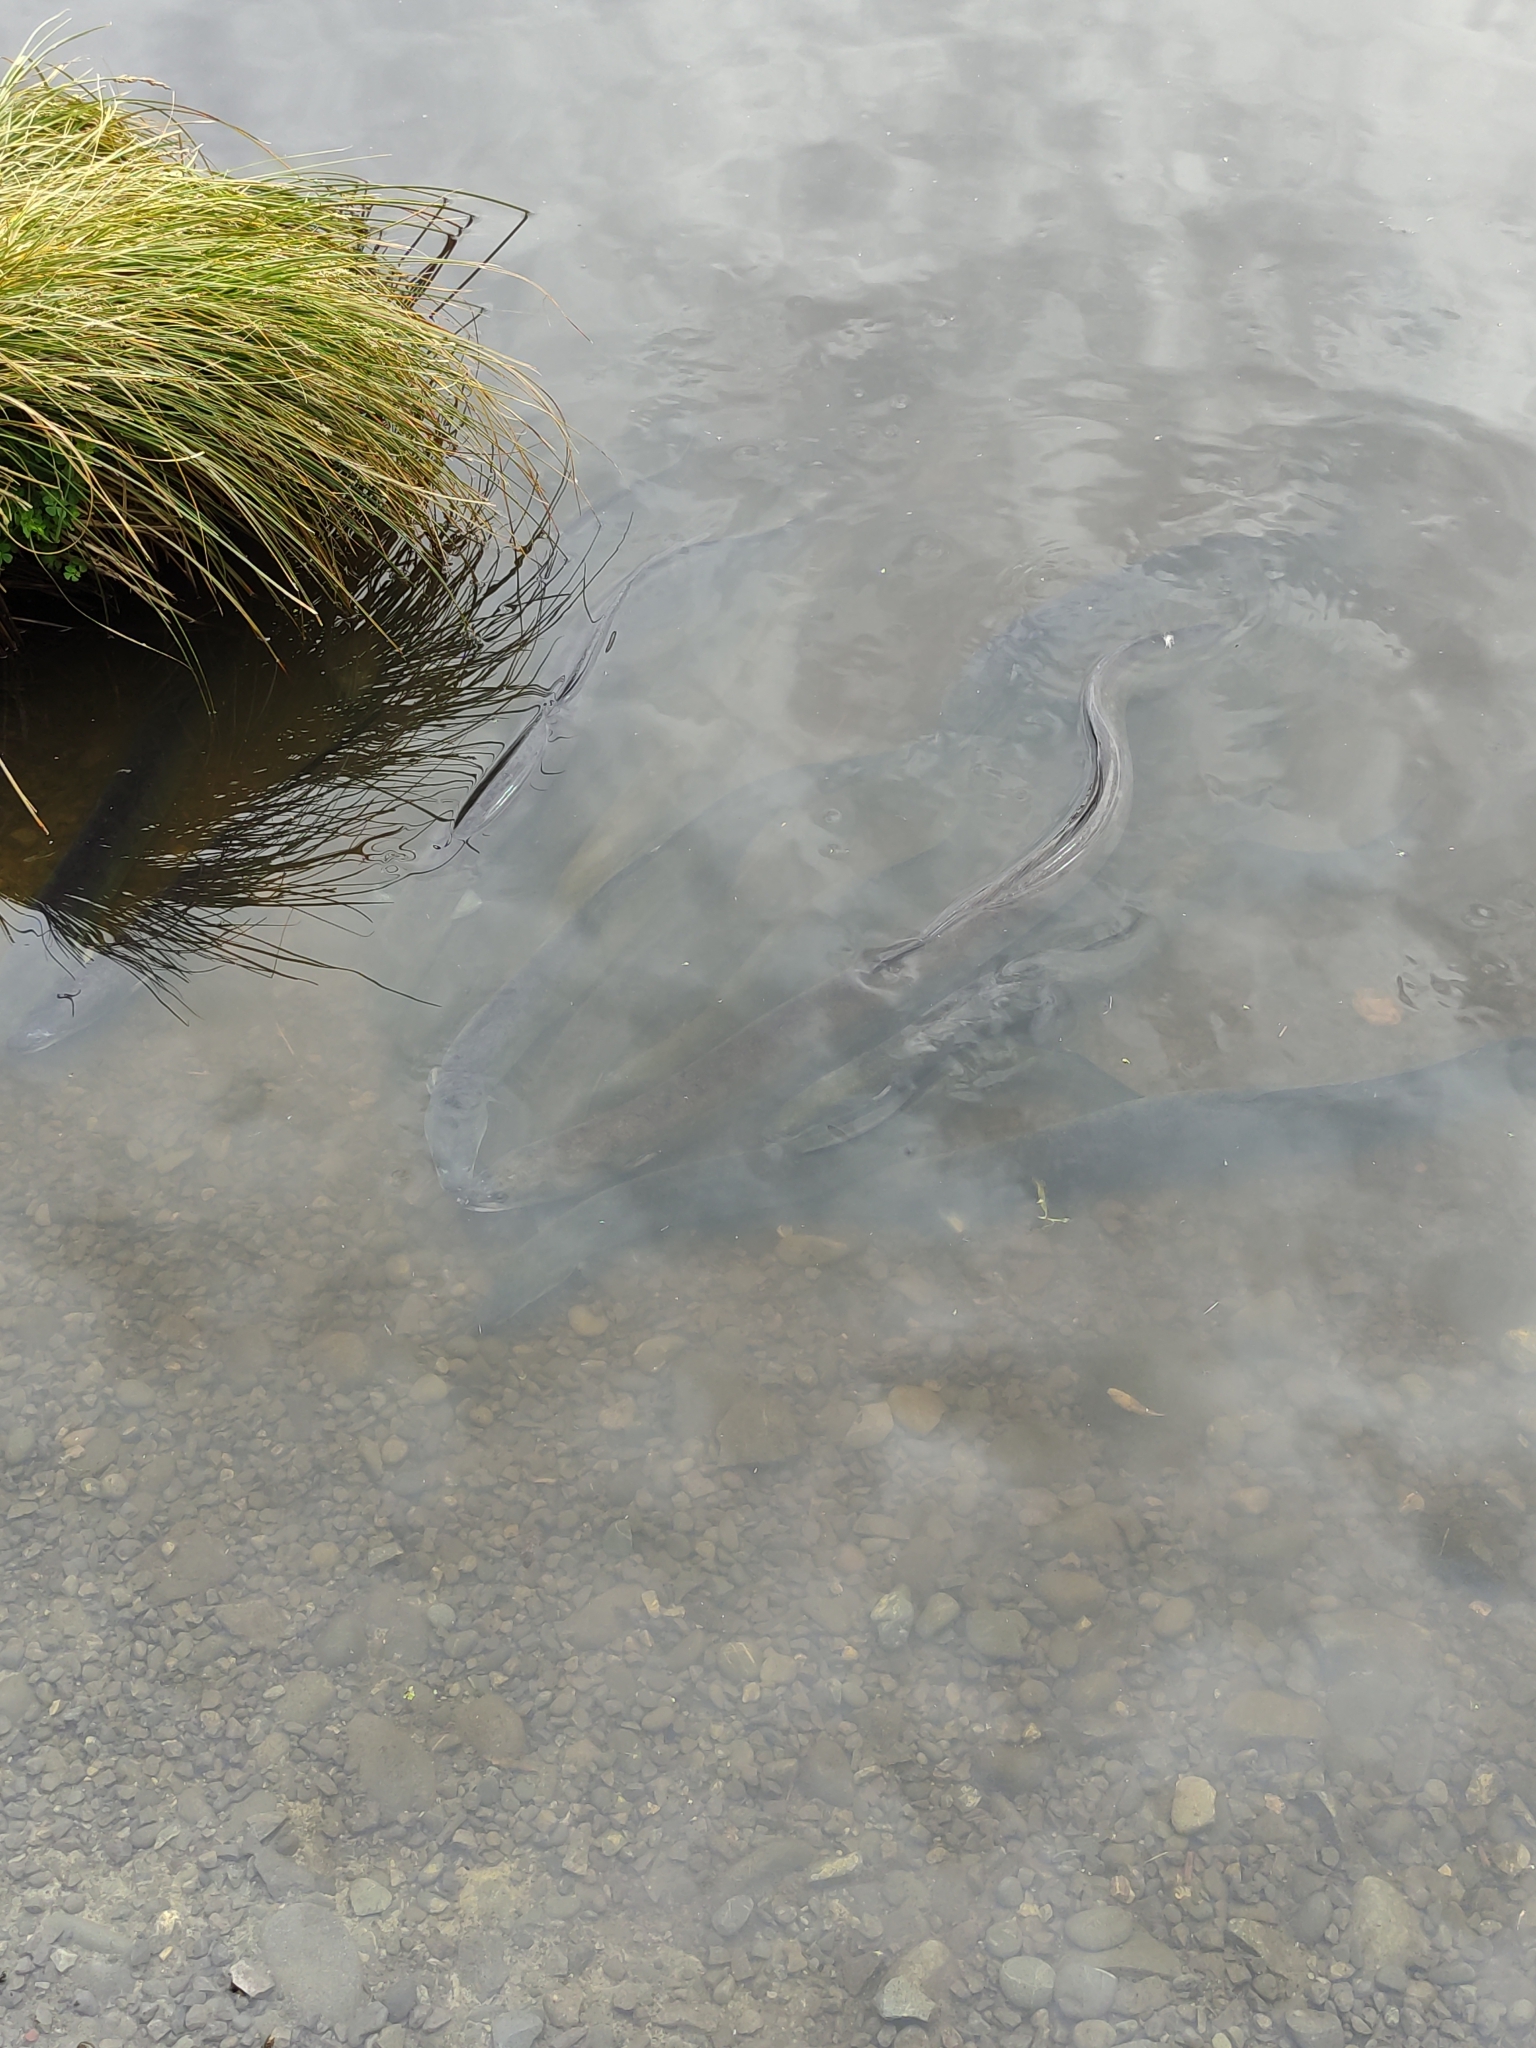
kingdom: Animalia
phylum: Chordata
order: Anguilliformes
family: Anguillidae
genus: Anguilla
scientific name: Anguilla dieffenbachii
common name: New zealand longfin eel
